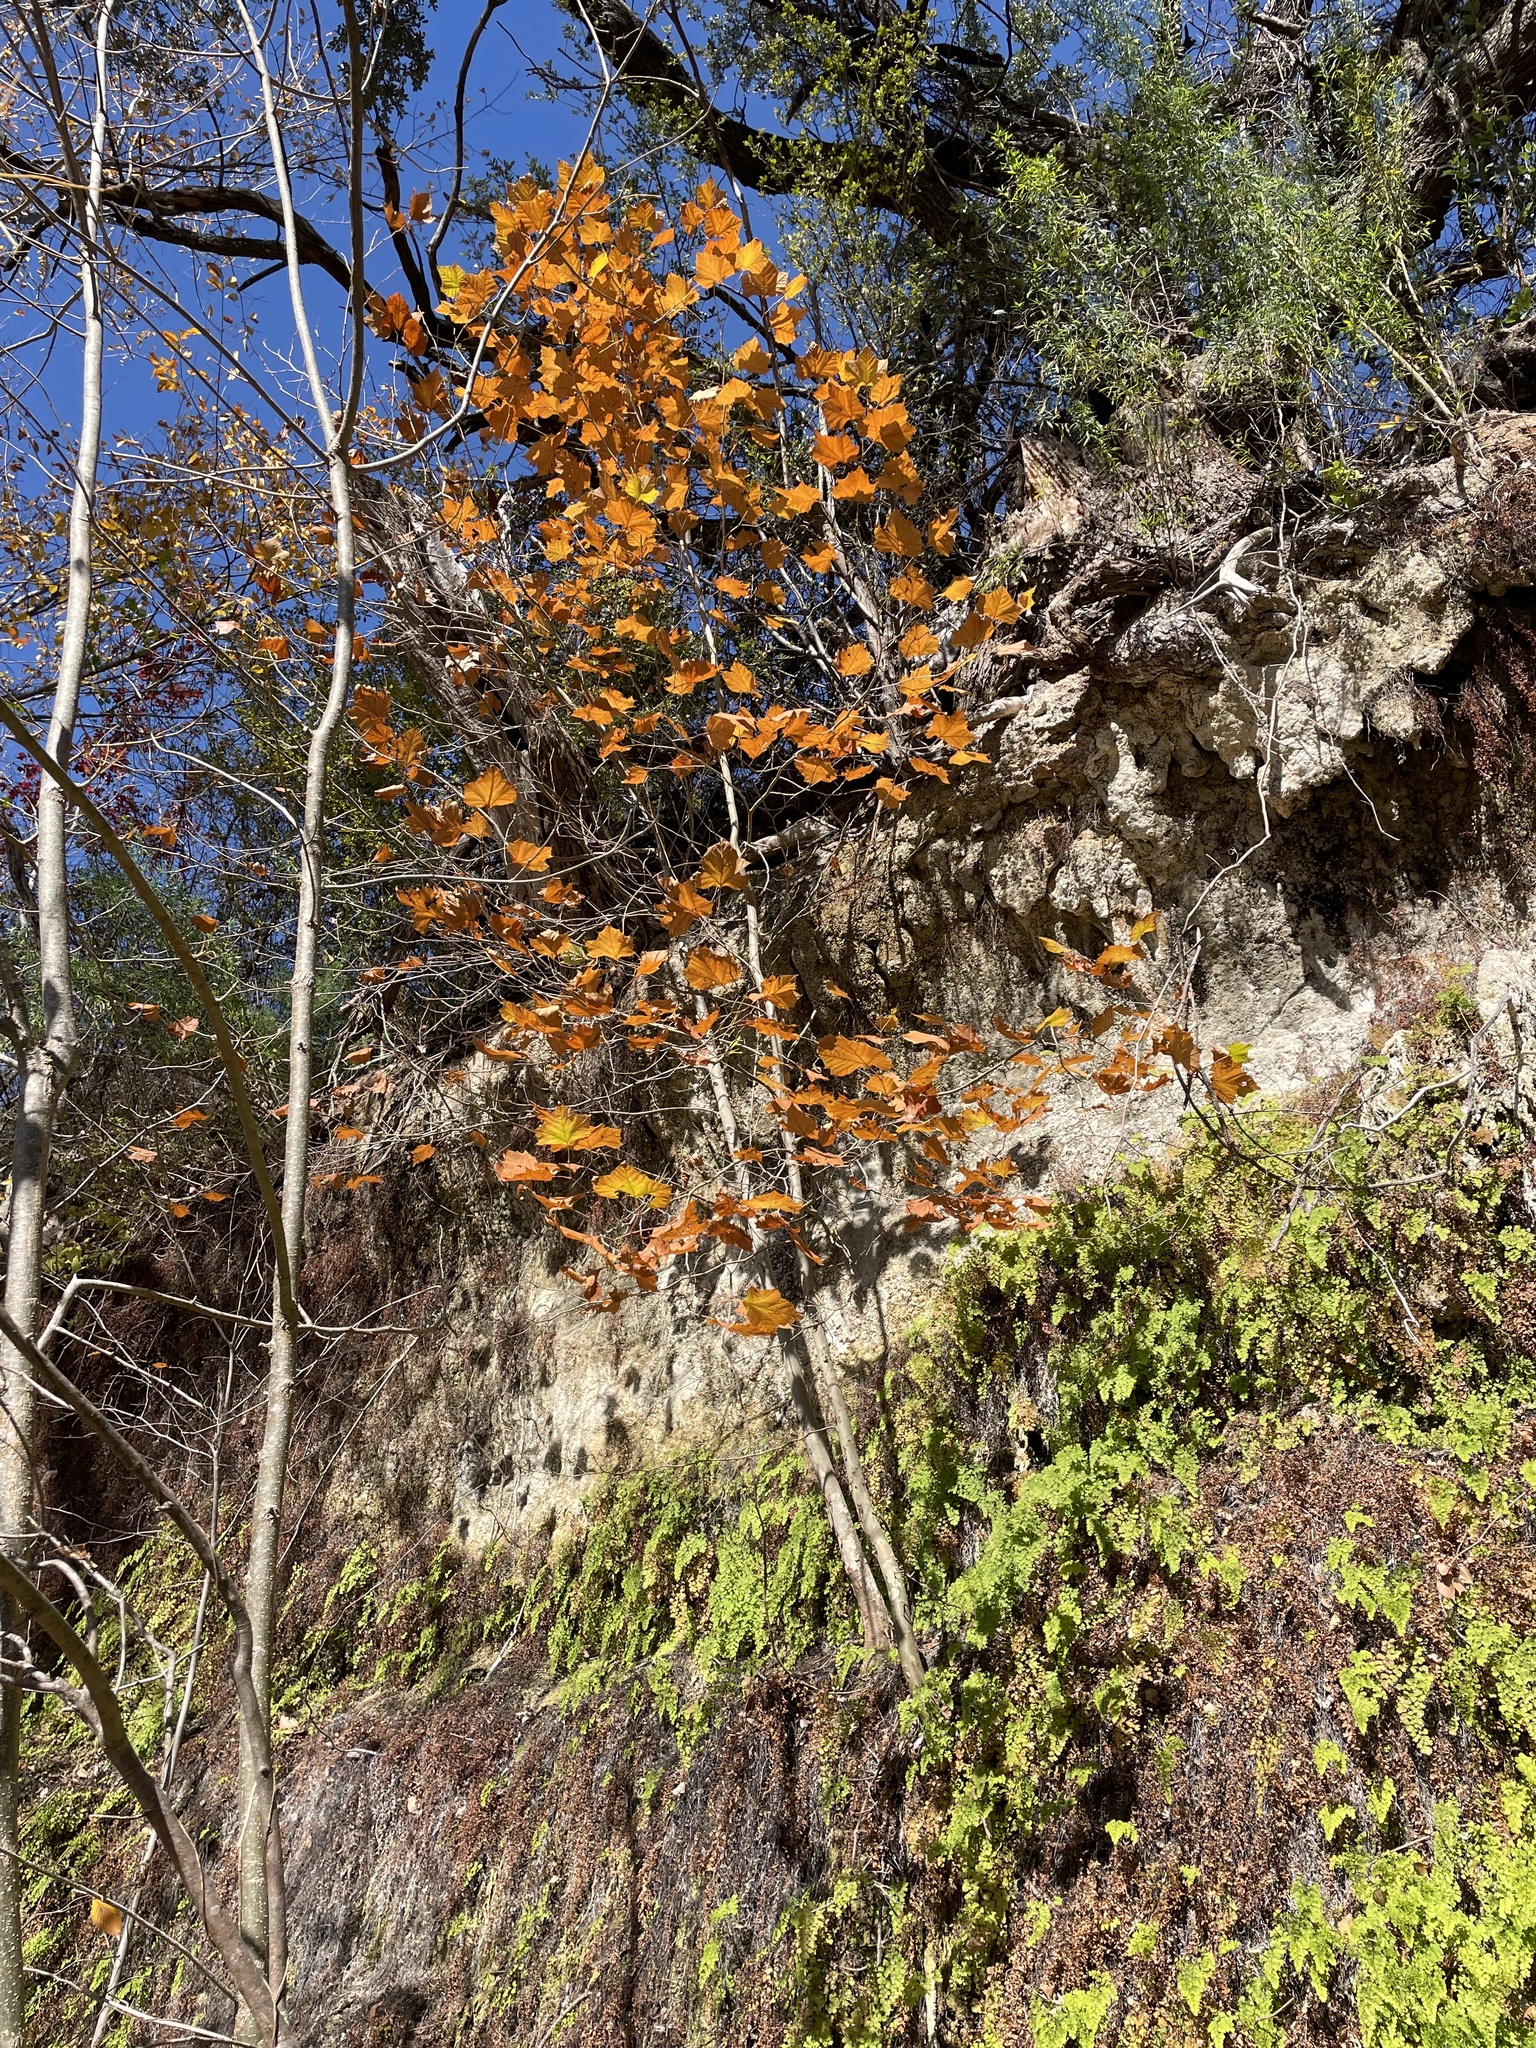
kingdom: Plantae
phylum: Tracheophyta
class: Magnoliopsida
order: Proteales
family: Platanaceae
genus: Platanus
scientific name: Platanus occidentalis
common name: American sycamore
